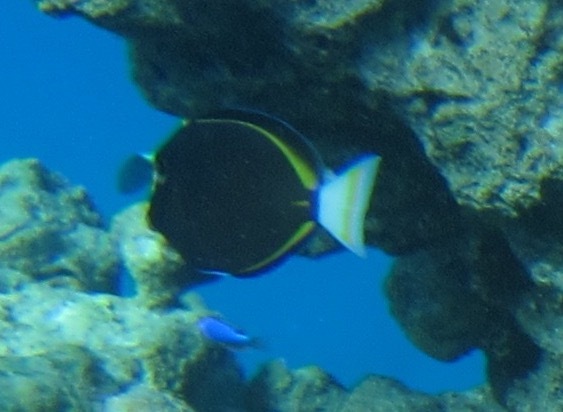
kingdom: Animalia
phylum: Chordata
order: Perciformes
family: Acanthuridae
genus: Acanthurus
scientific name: Acanthurus nigricans
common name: Whitecheek surgeonfish
